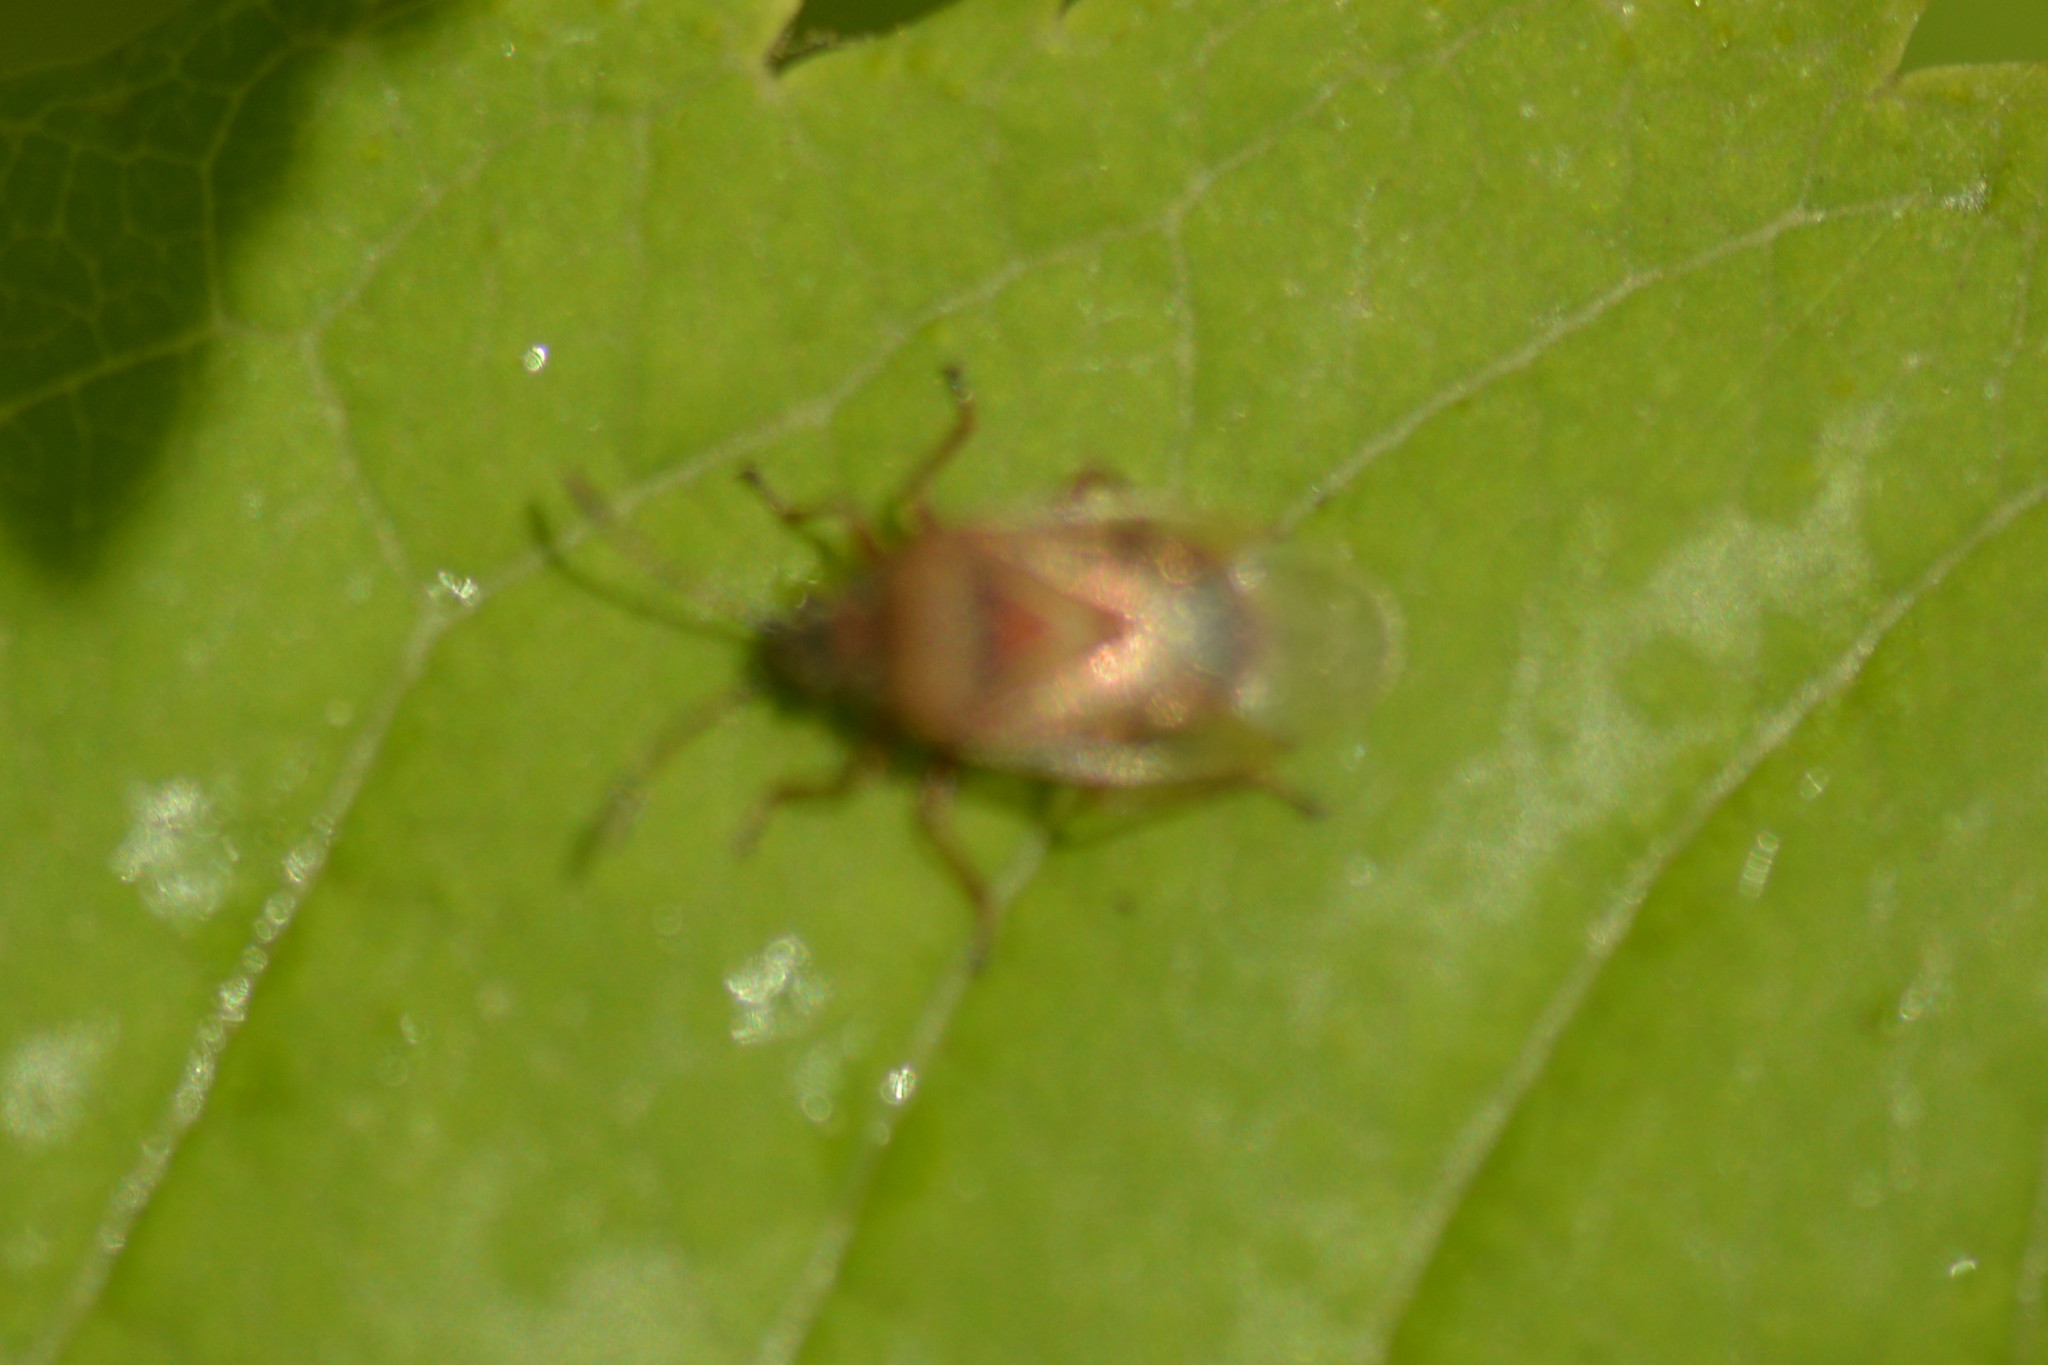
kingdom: Animalia
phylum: Arthropoda
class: Insecta
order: Hemiptera
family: Lygaeidae
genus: Kleidocerys
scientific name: Kleidocerys resedae
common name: Birch catkin bug
